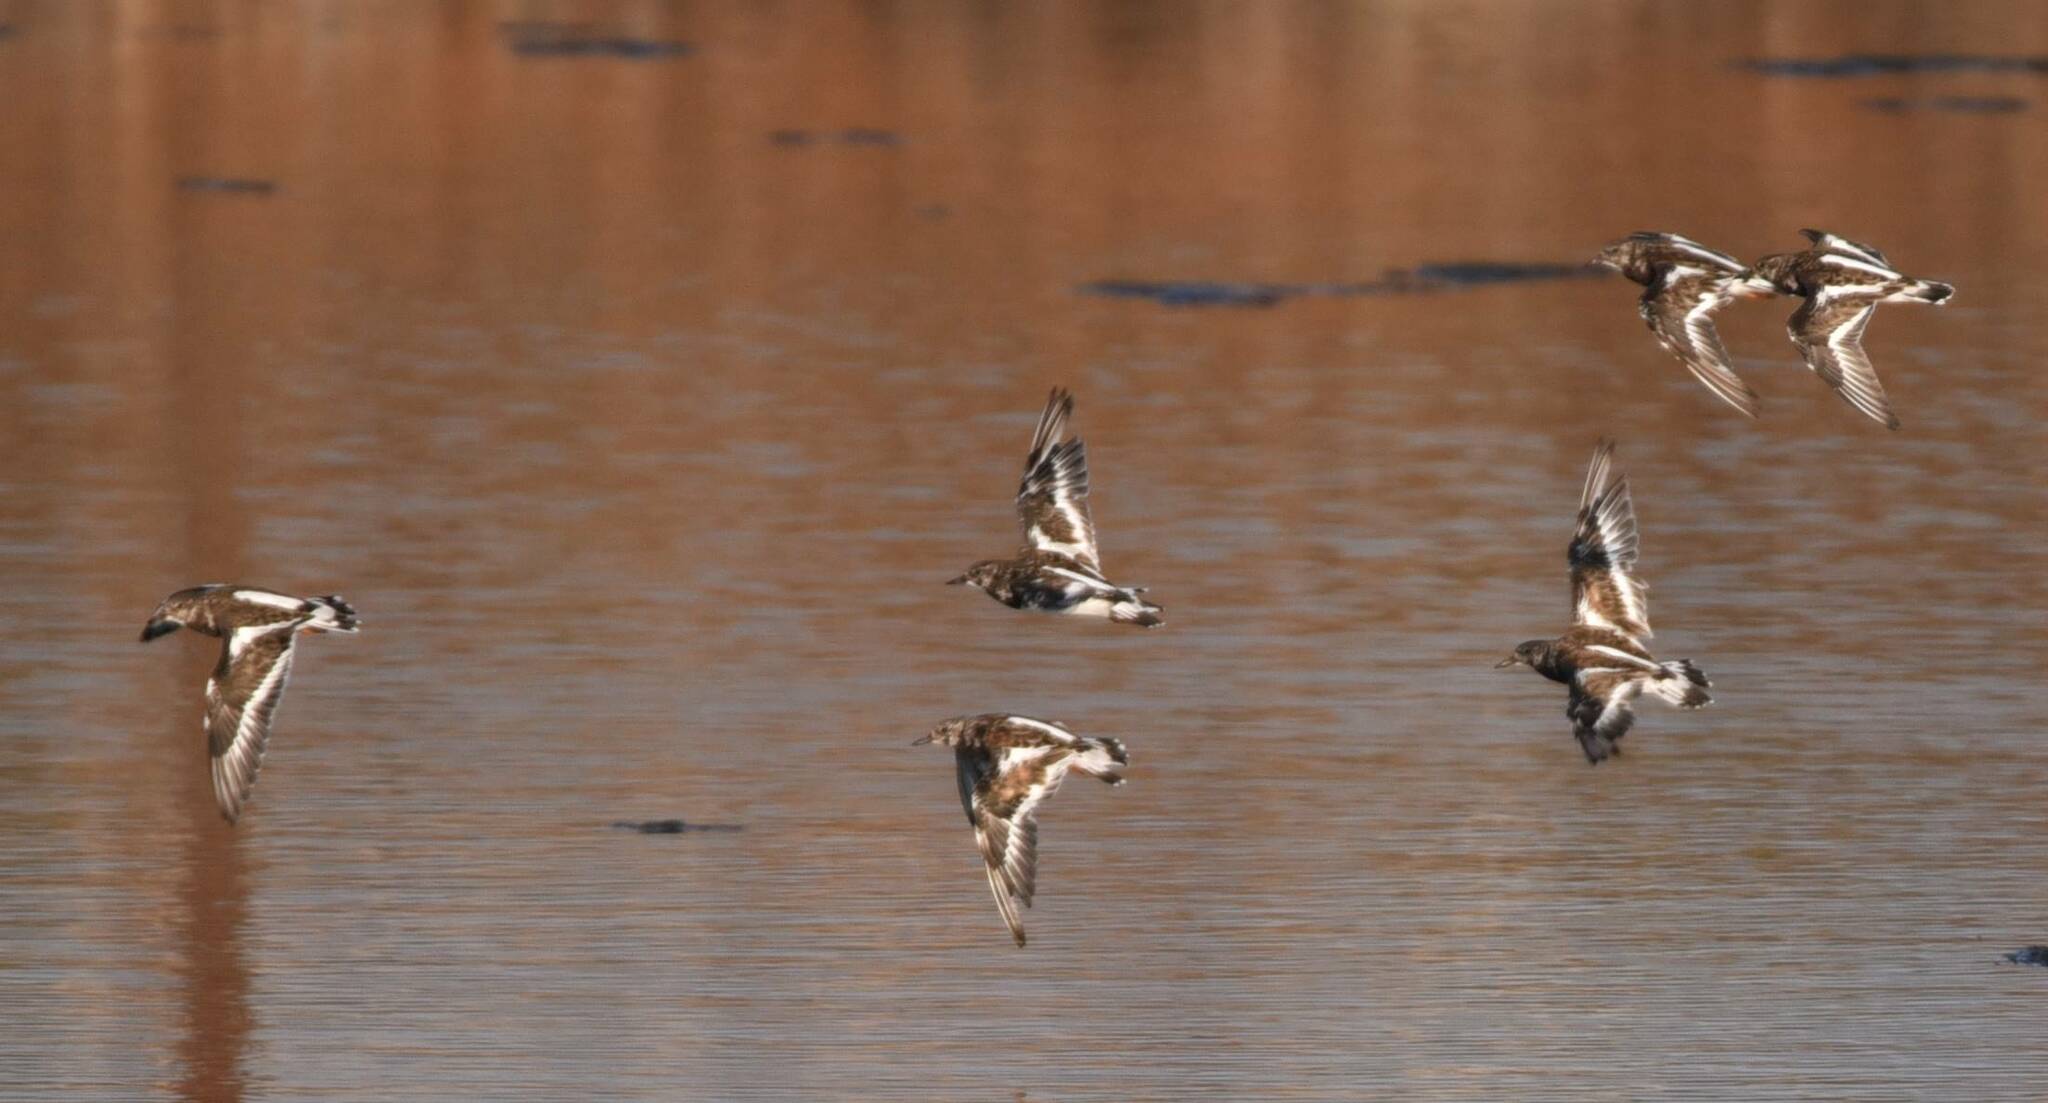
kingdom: Animalia
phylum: Chordata
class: Aves
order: Charadriiformes
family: Scolopacidae
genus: Arenaria
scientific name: Arenaria interpres
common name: Ruddy turnstone
